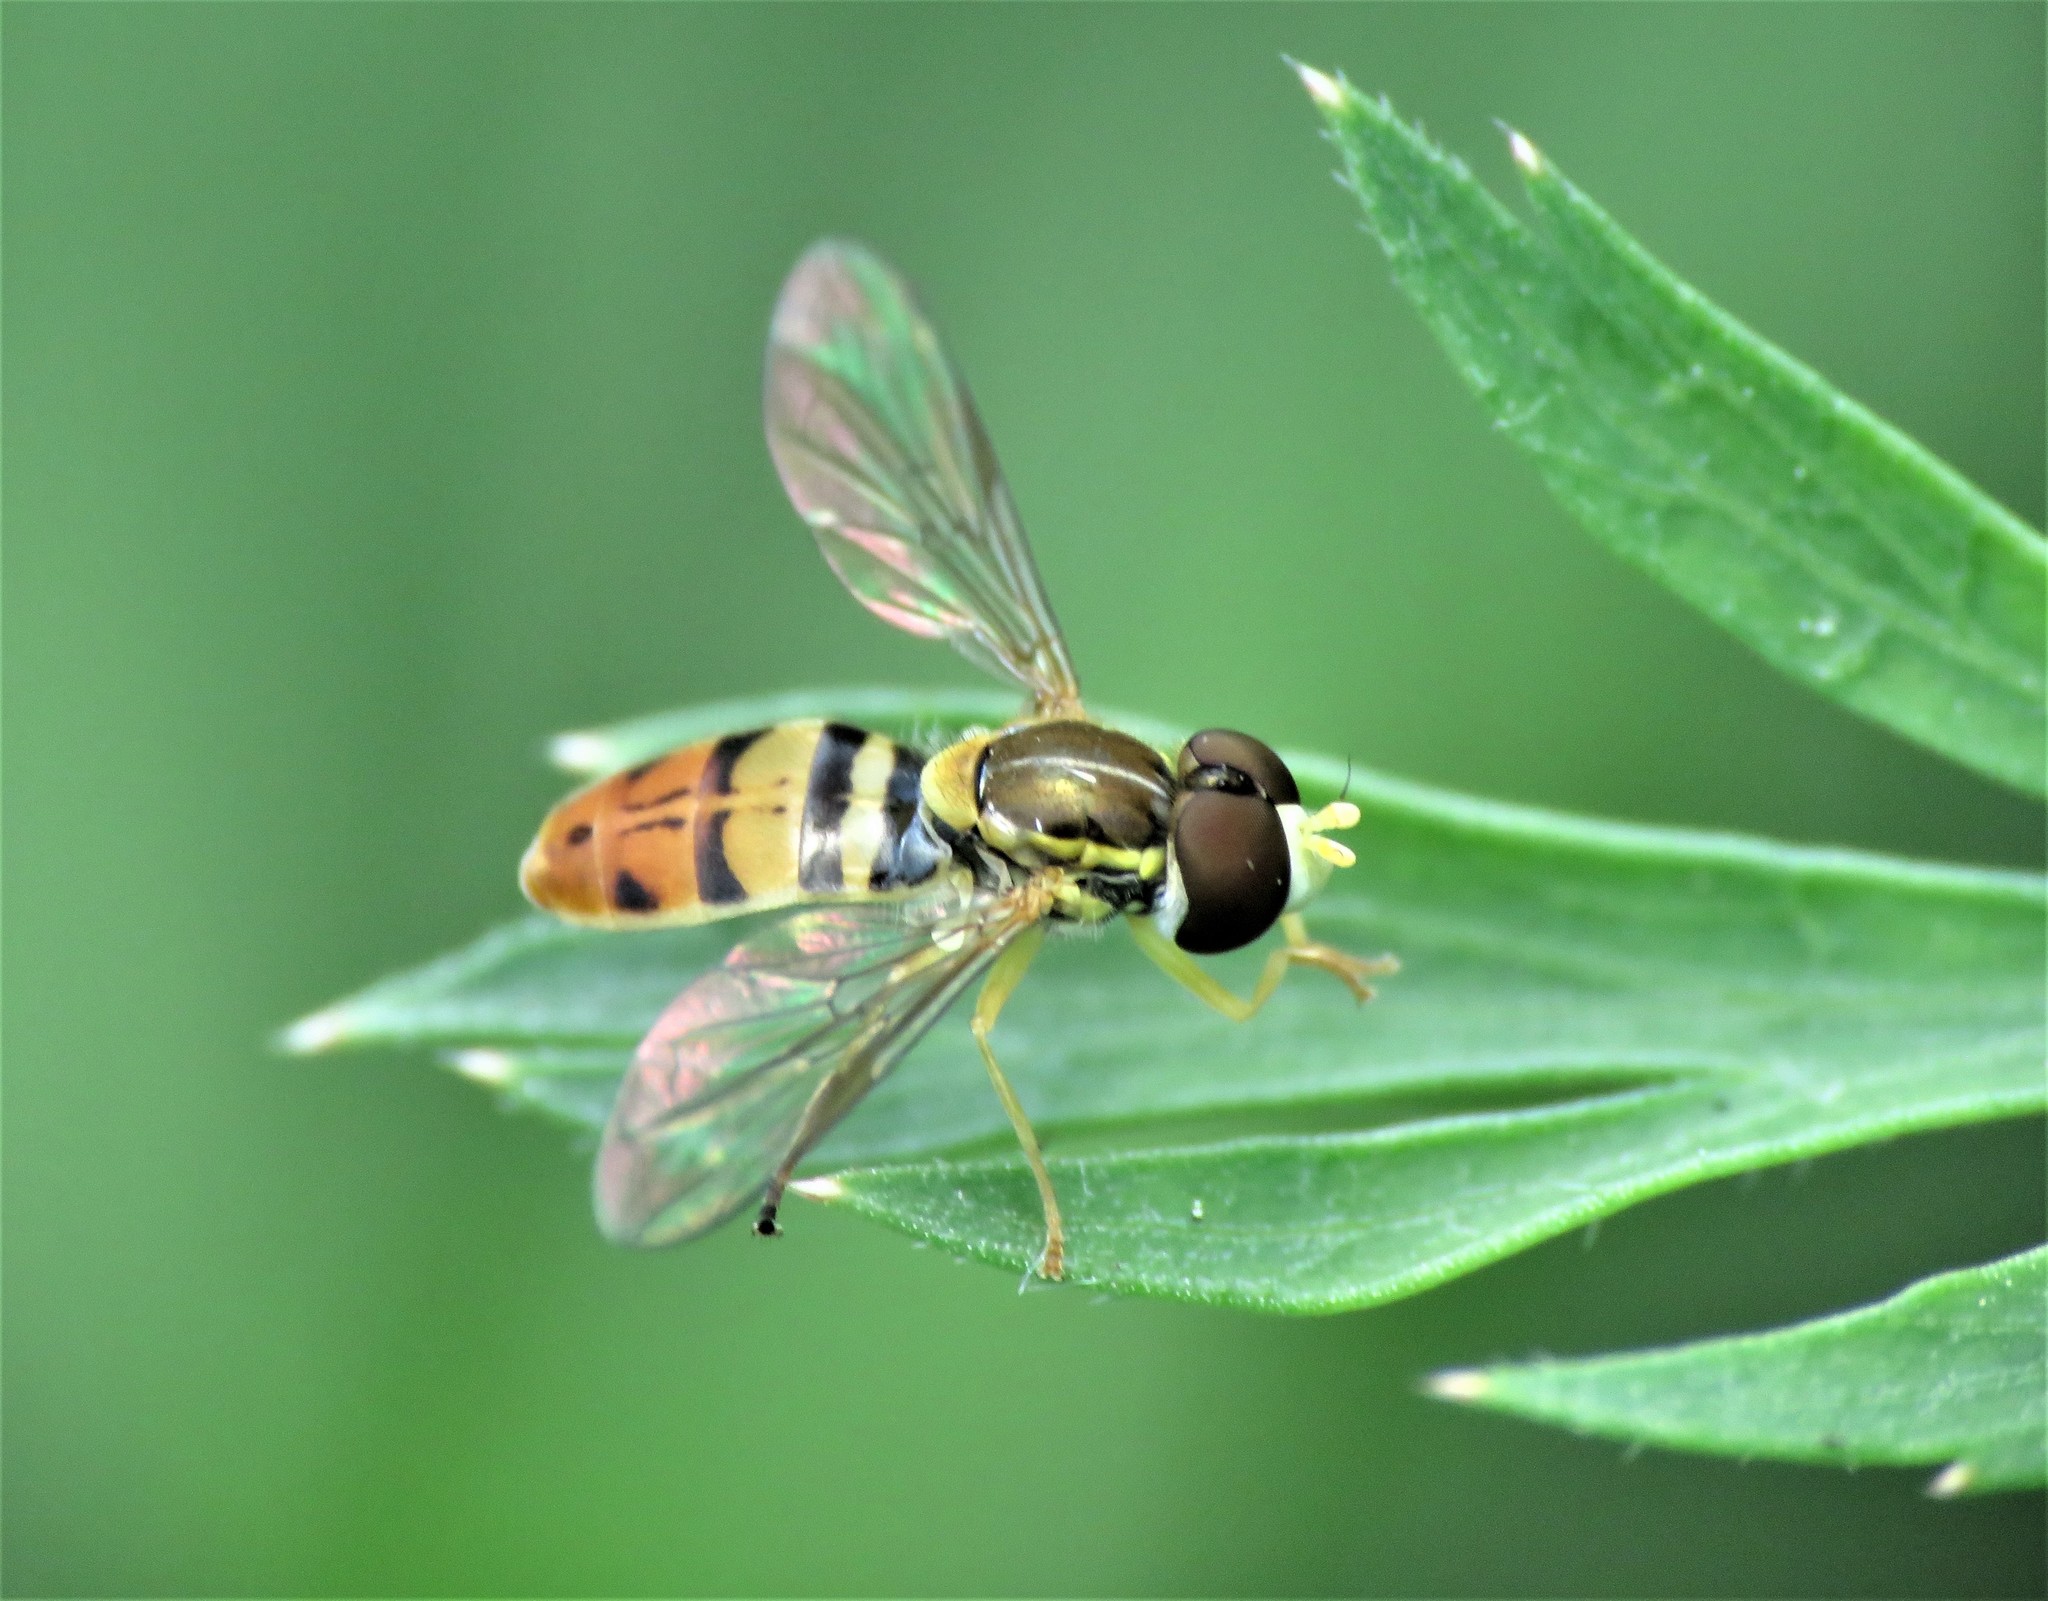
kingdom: Animalia
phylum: Arthropoda
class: Insecta
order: Diptera
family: Syrphidae
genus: Toxomerus
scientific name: Toxomerus marginatus
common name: Syrphid fly
